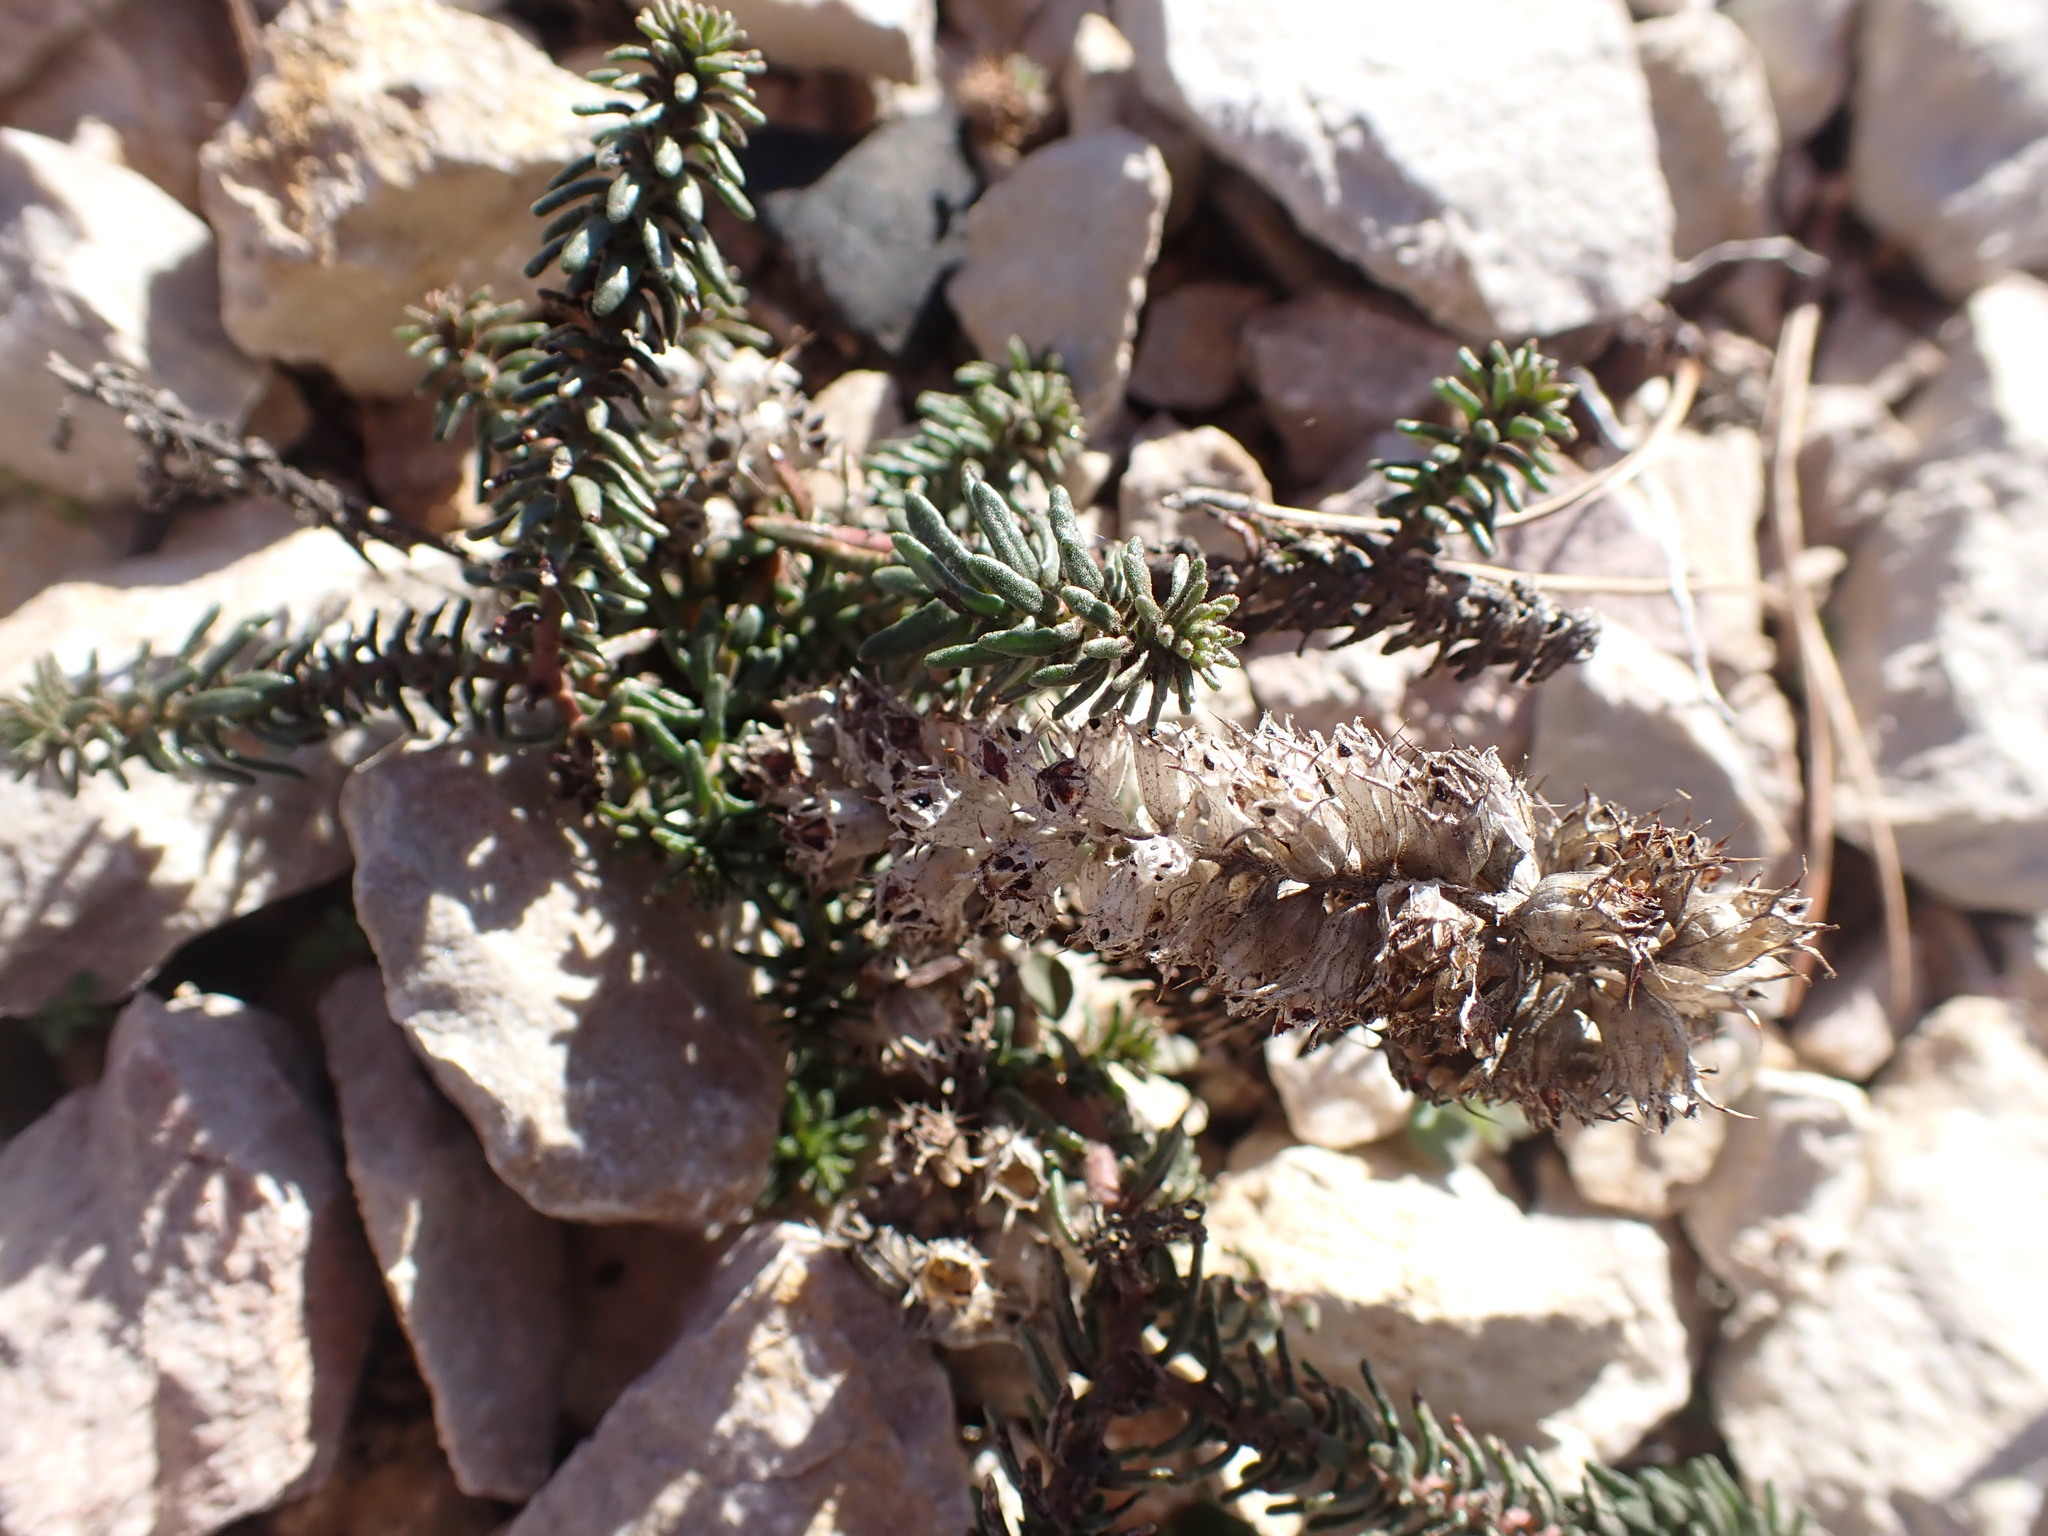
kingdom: Plantae
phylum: Tracheophyta
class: Magnoliopsida
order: Ericales
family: Primulaceae
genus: Coris
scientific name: Coris monspeliensis
